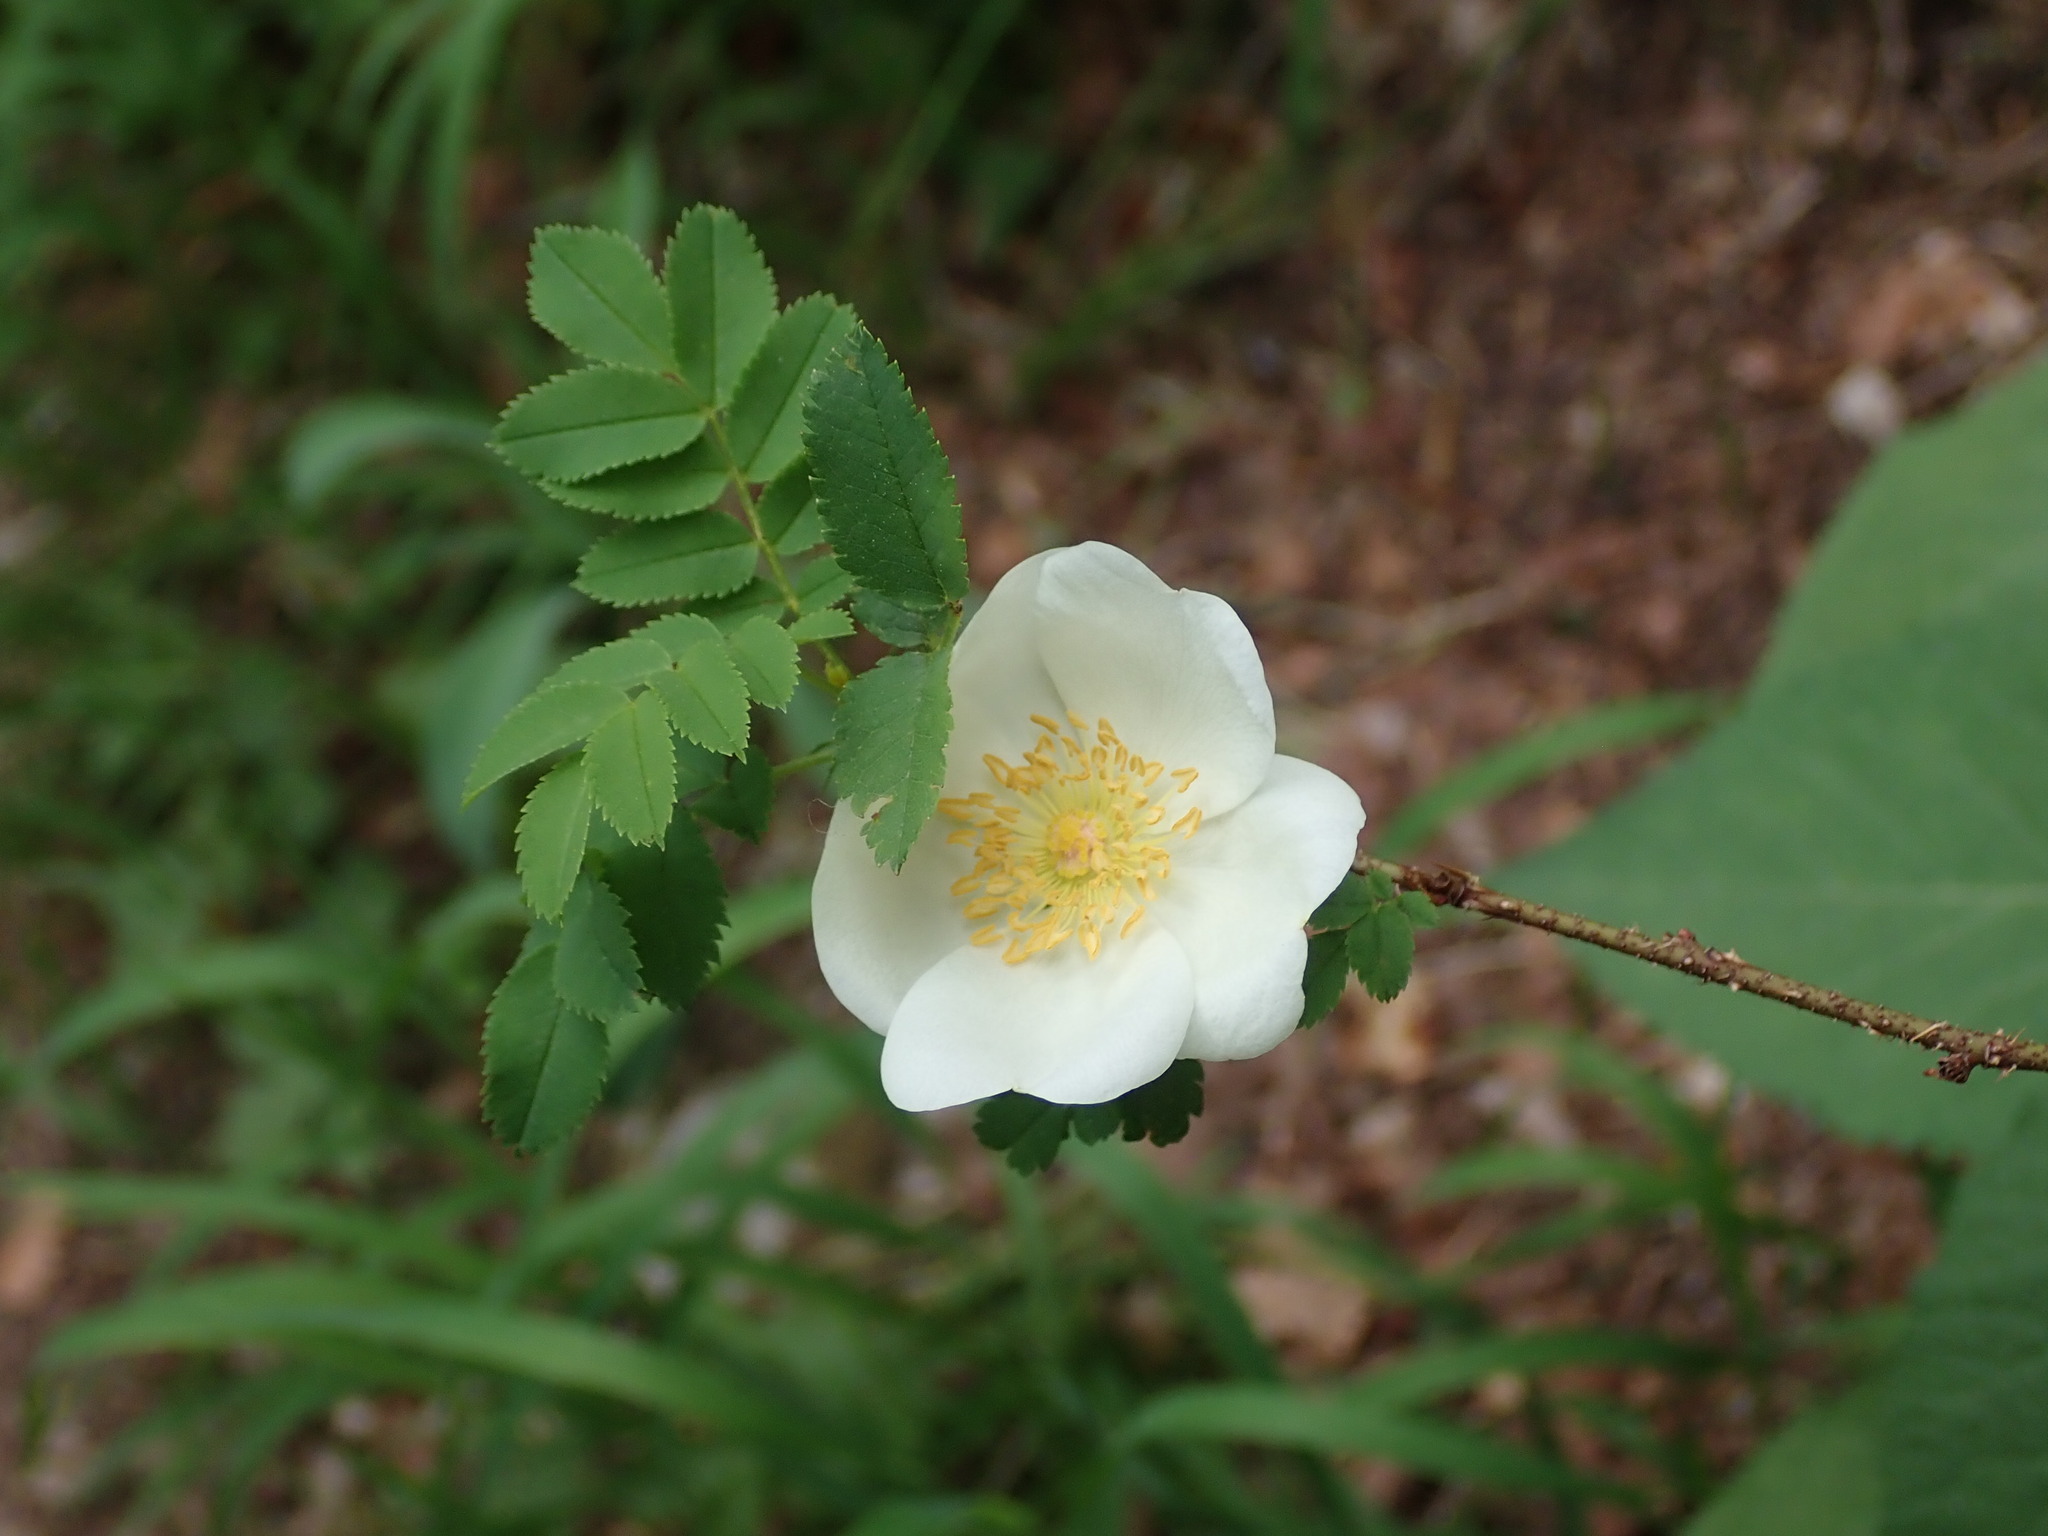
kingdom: Plantae
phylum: Tracheophyta
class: Magnoliopsida
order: Rosales
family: Rosaceae
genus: Rosa
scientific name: Rosa spinosissima
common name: Burnet rose
